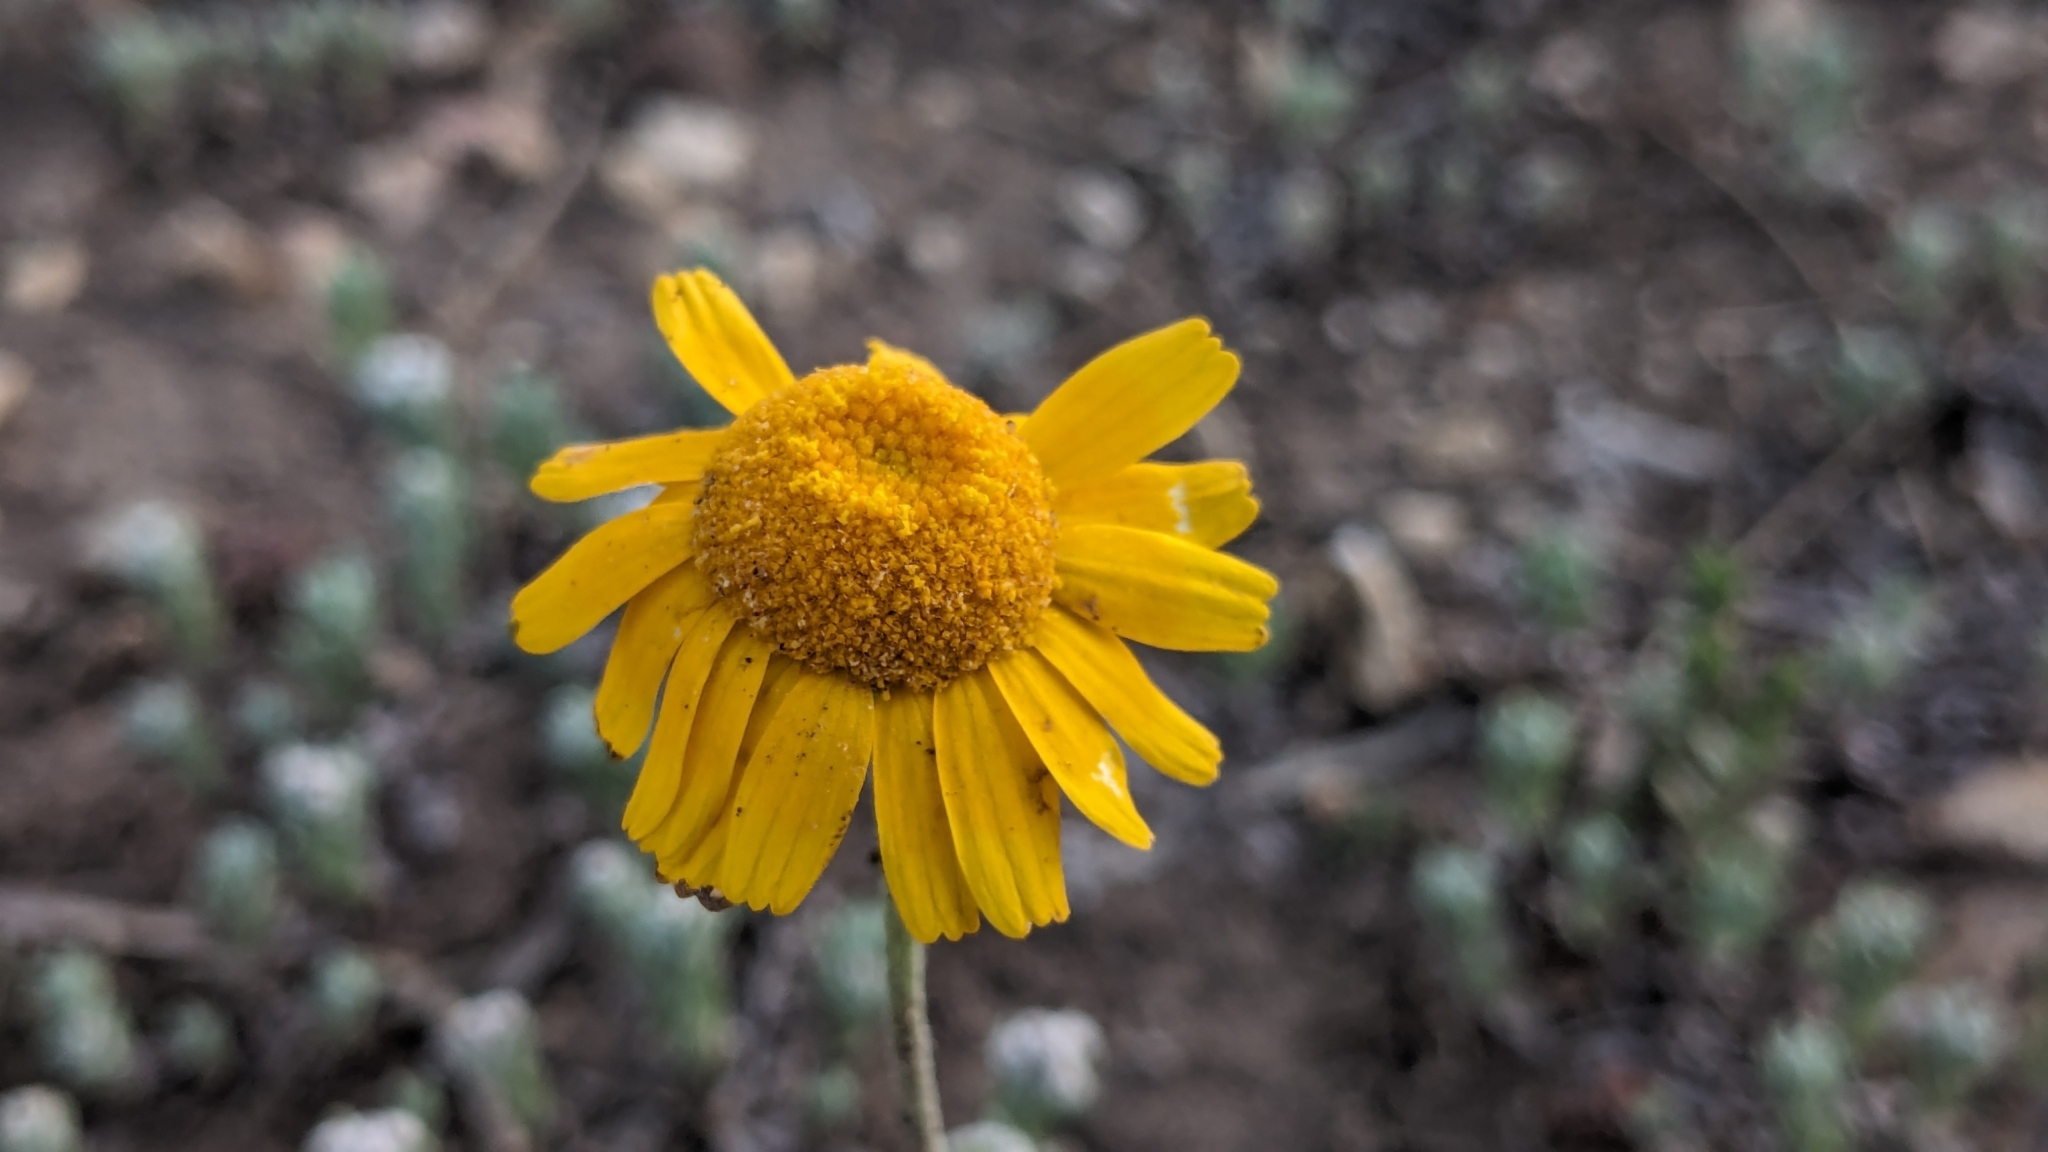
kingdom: Plantae
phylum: Tracheophyta
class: Magnoliopsida
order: Asterales
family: Asteraceae
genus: Tetraneuris
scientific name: Tetraneuris linearifolia
